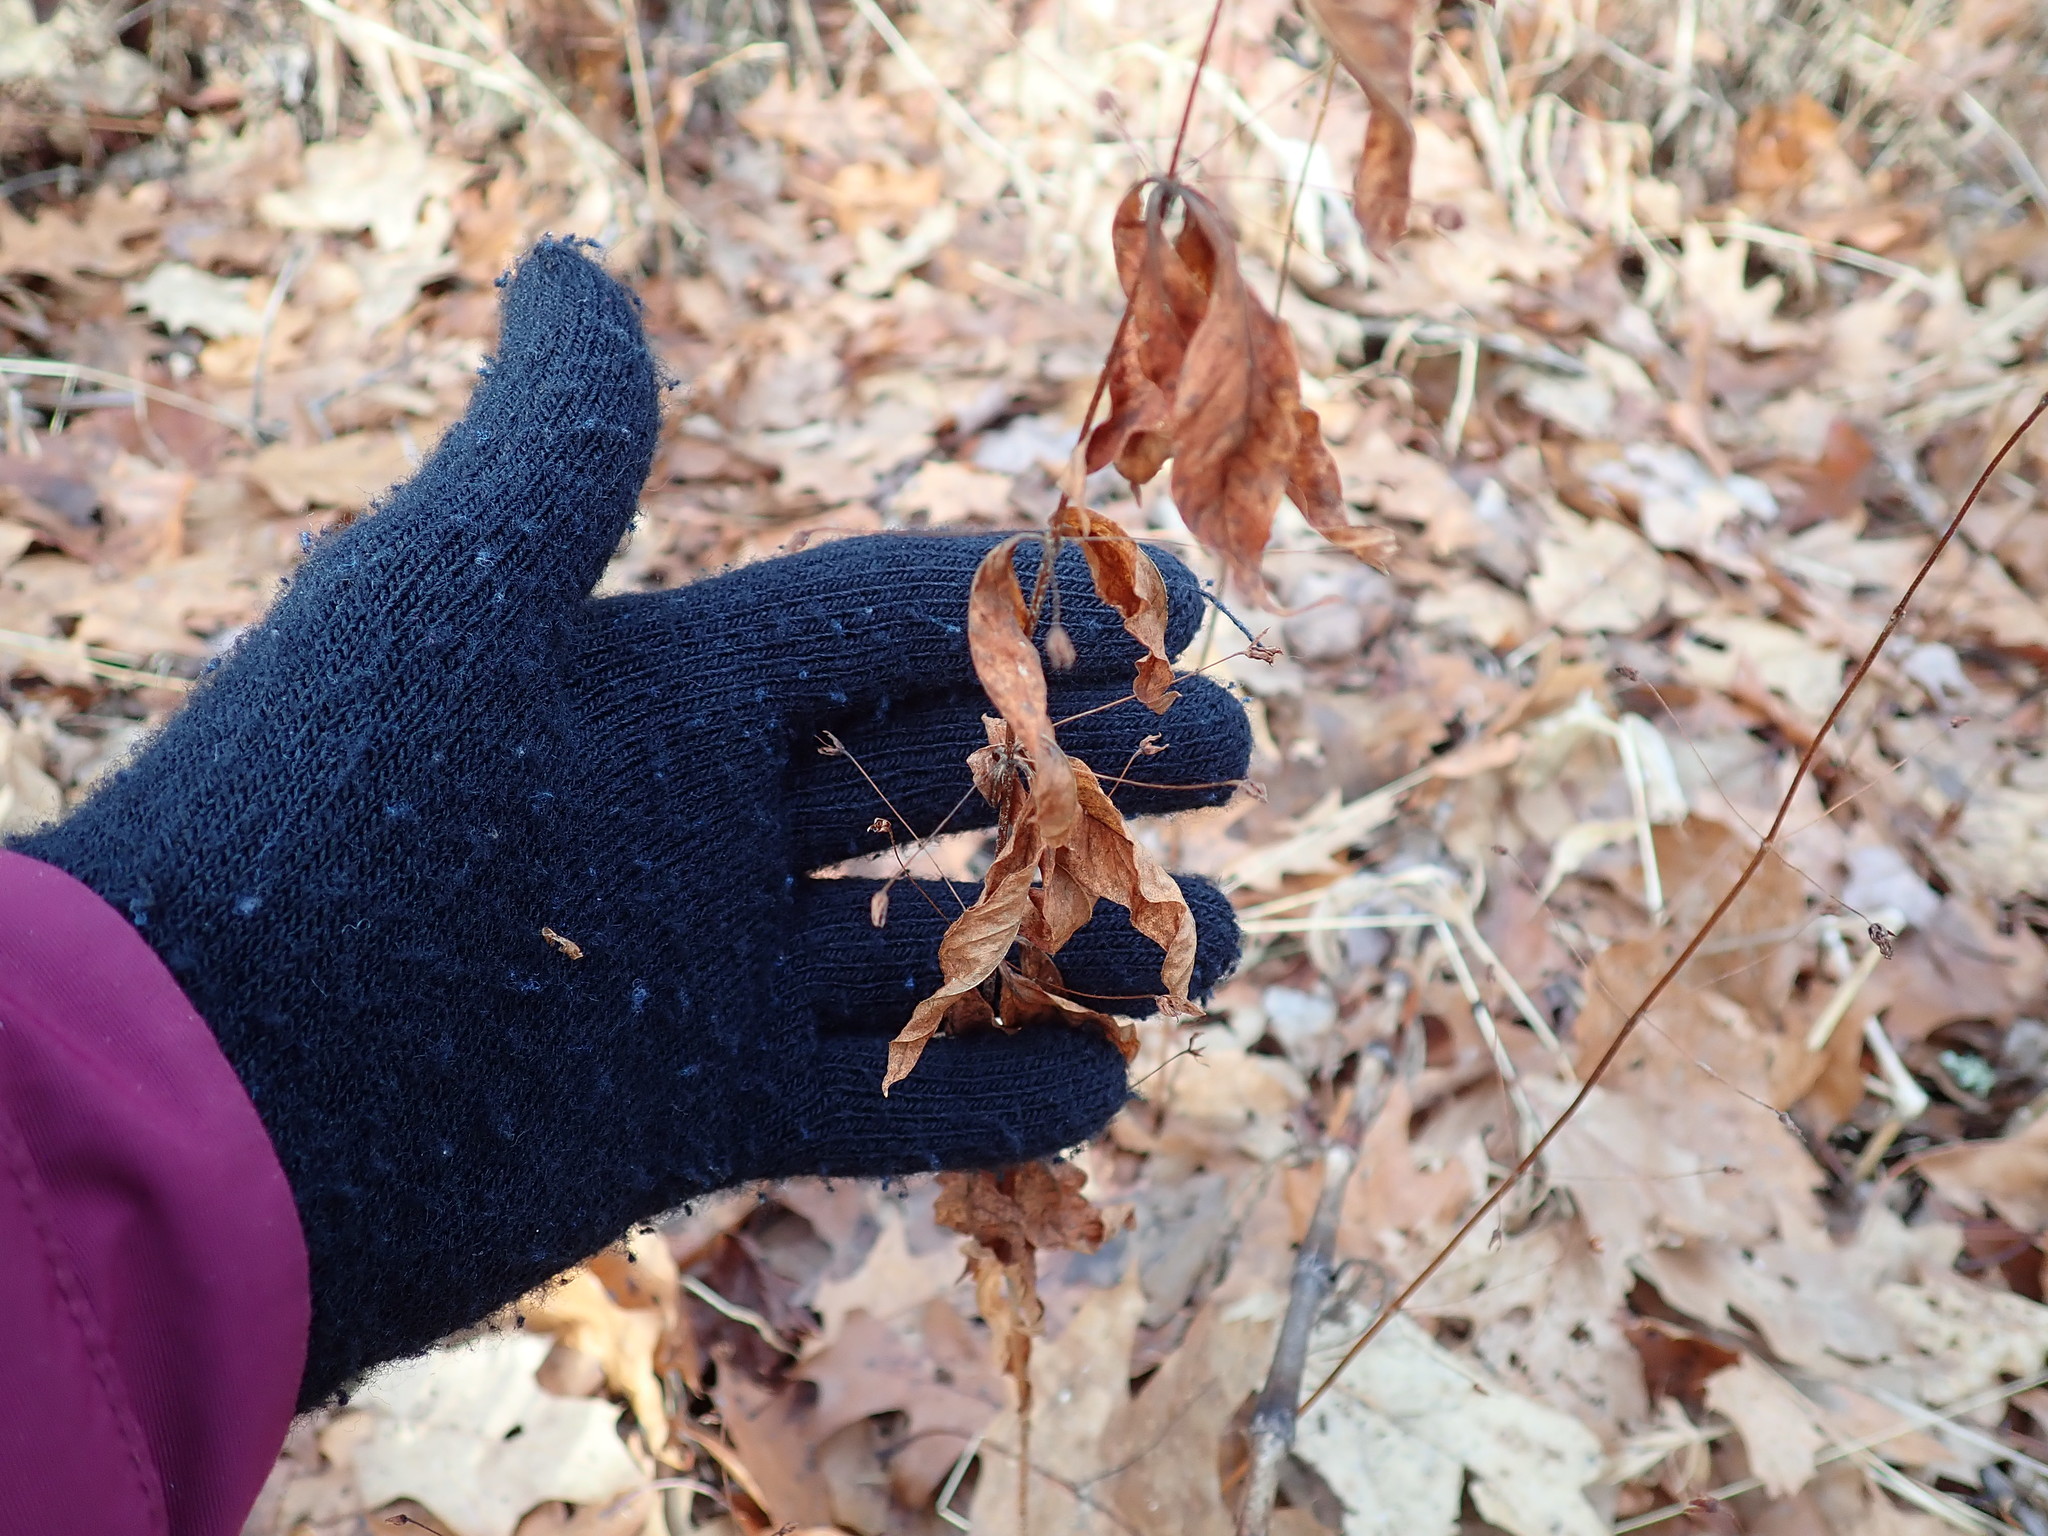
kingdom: Plantae
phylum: Tracheophyta
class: Magnoliopsida
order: Ericales
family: Primulaceae
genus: Lysimachia
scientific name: Lysimachia quadrifolia
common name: Whorled loosestrife
